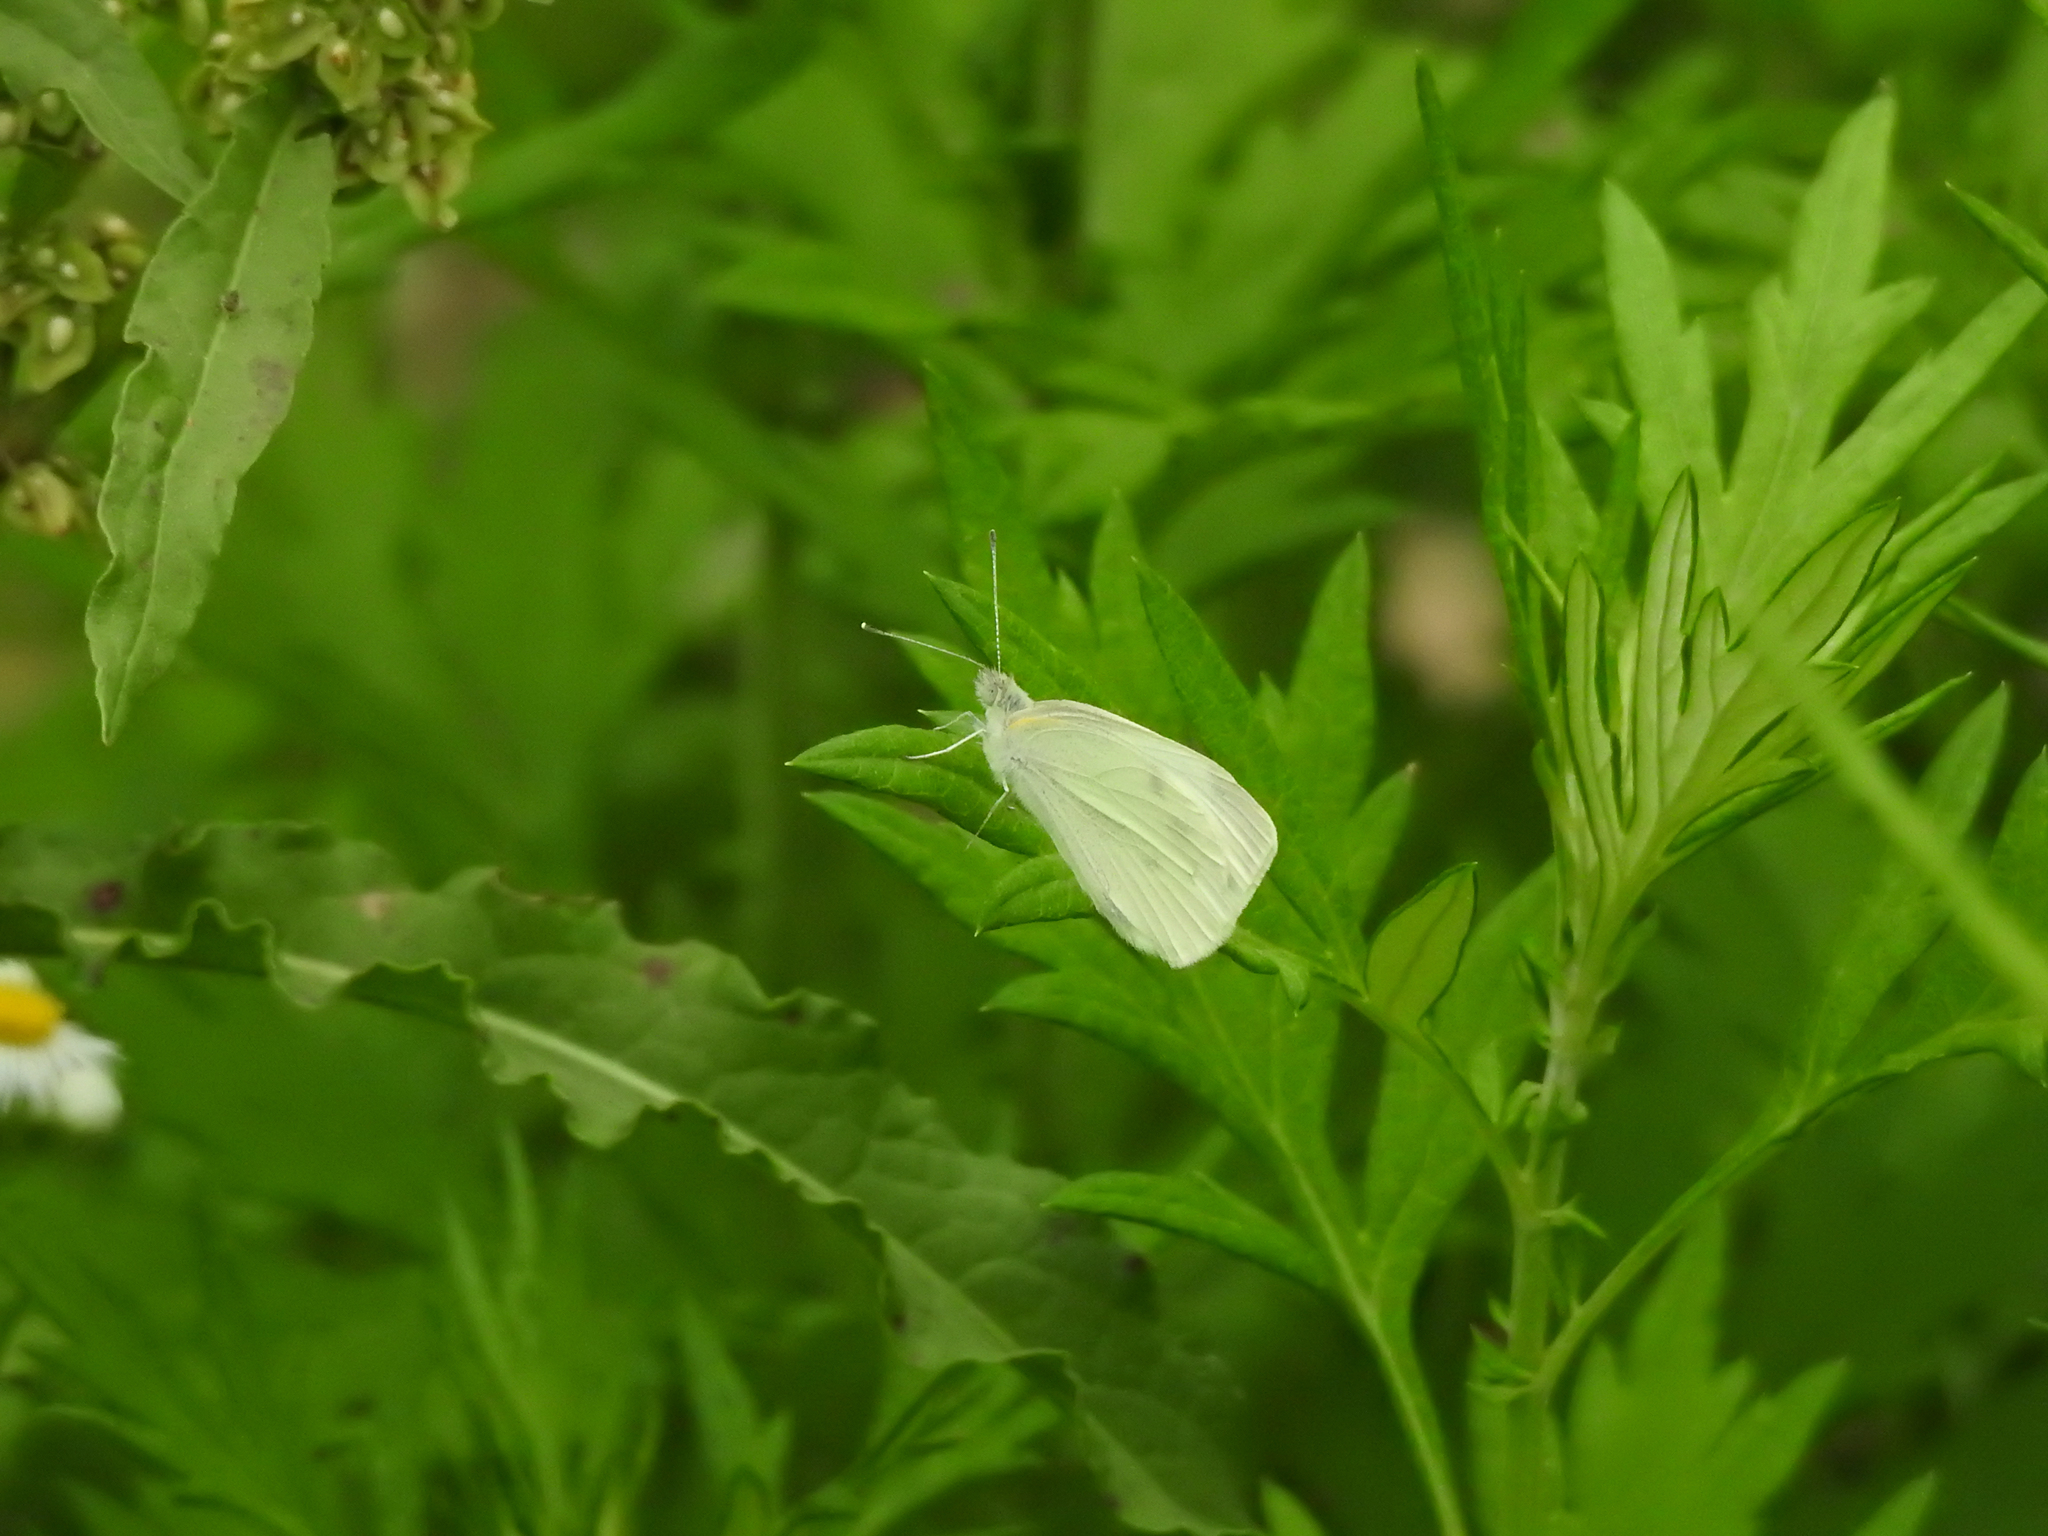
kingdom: Animalia
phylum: Arthropoda
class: Insecta
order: Lepidoptera
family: Pieridae
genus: Pieris
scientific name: Pieris rapae
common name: Small white
